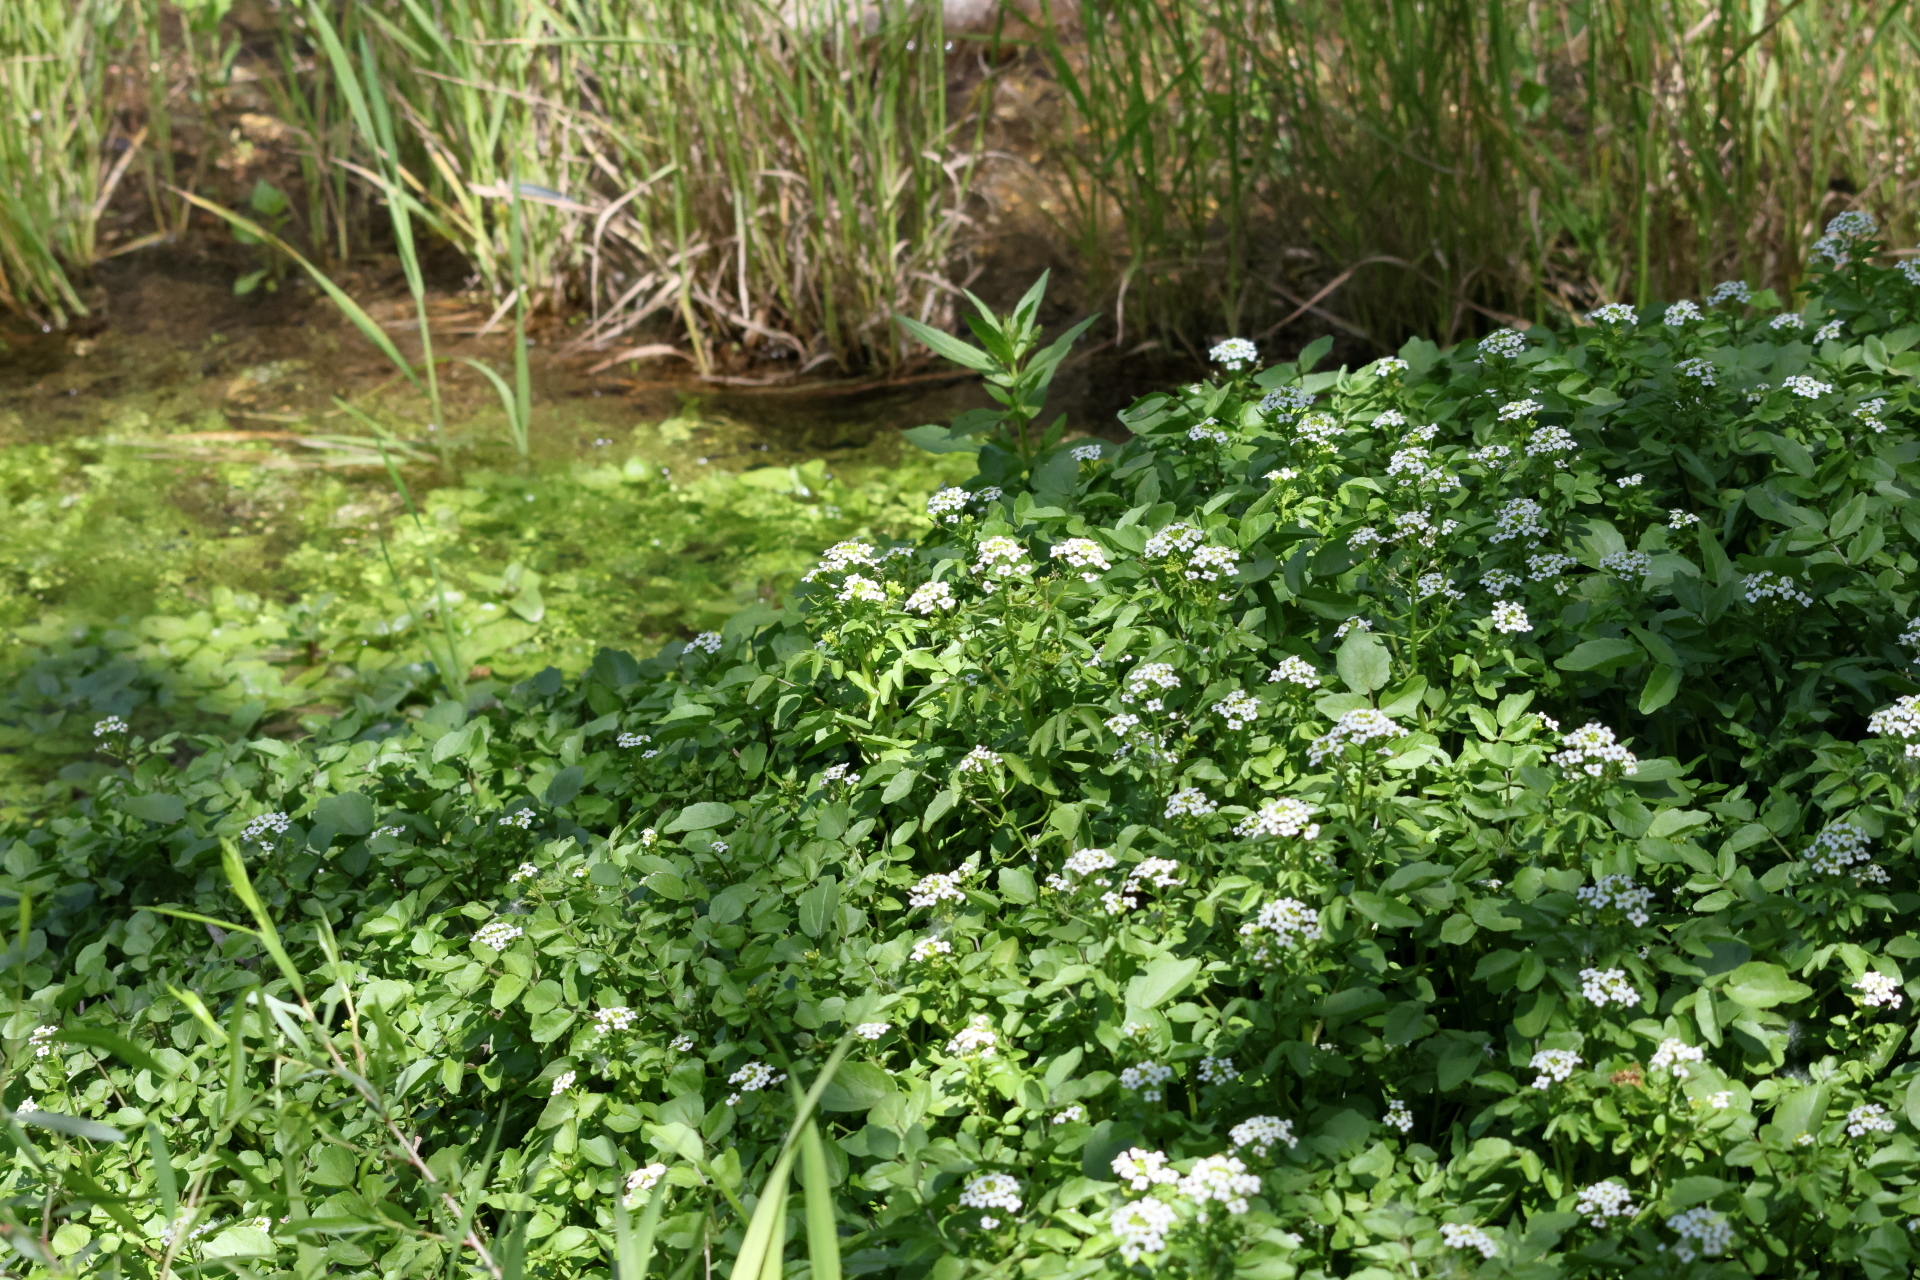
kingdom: Plantae
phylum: Tracheophyta
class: Magnoliopsida
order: Brassicales
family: Brassicaceae
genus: Nasturtium
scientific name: Nasturtium officinale
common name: Watercress
